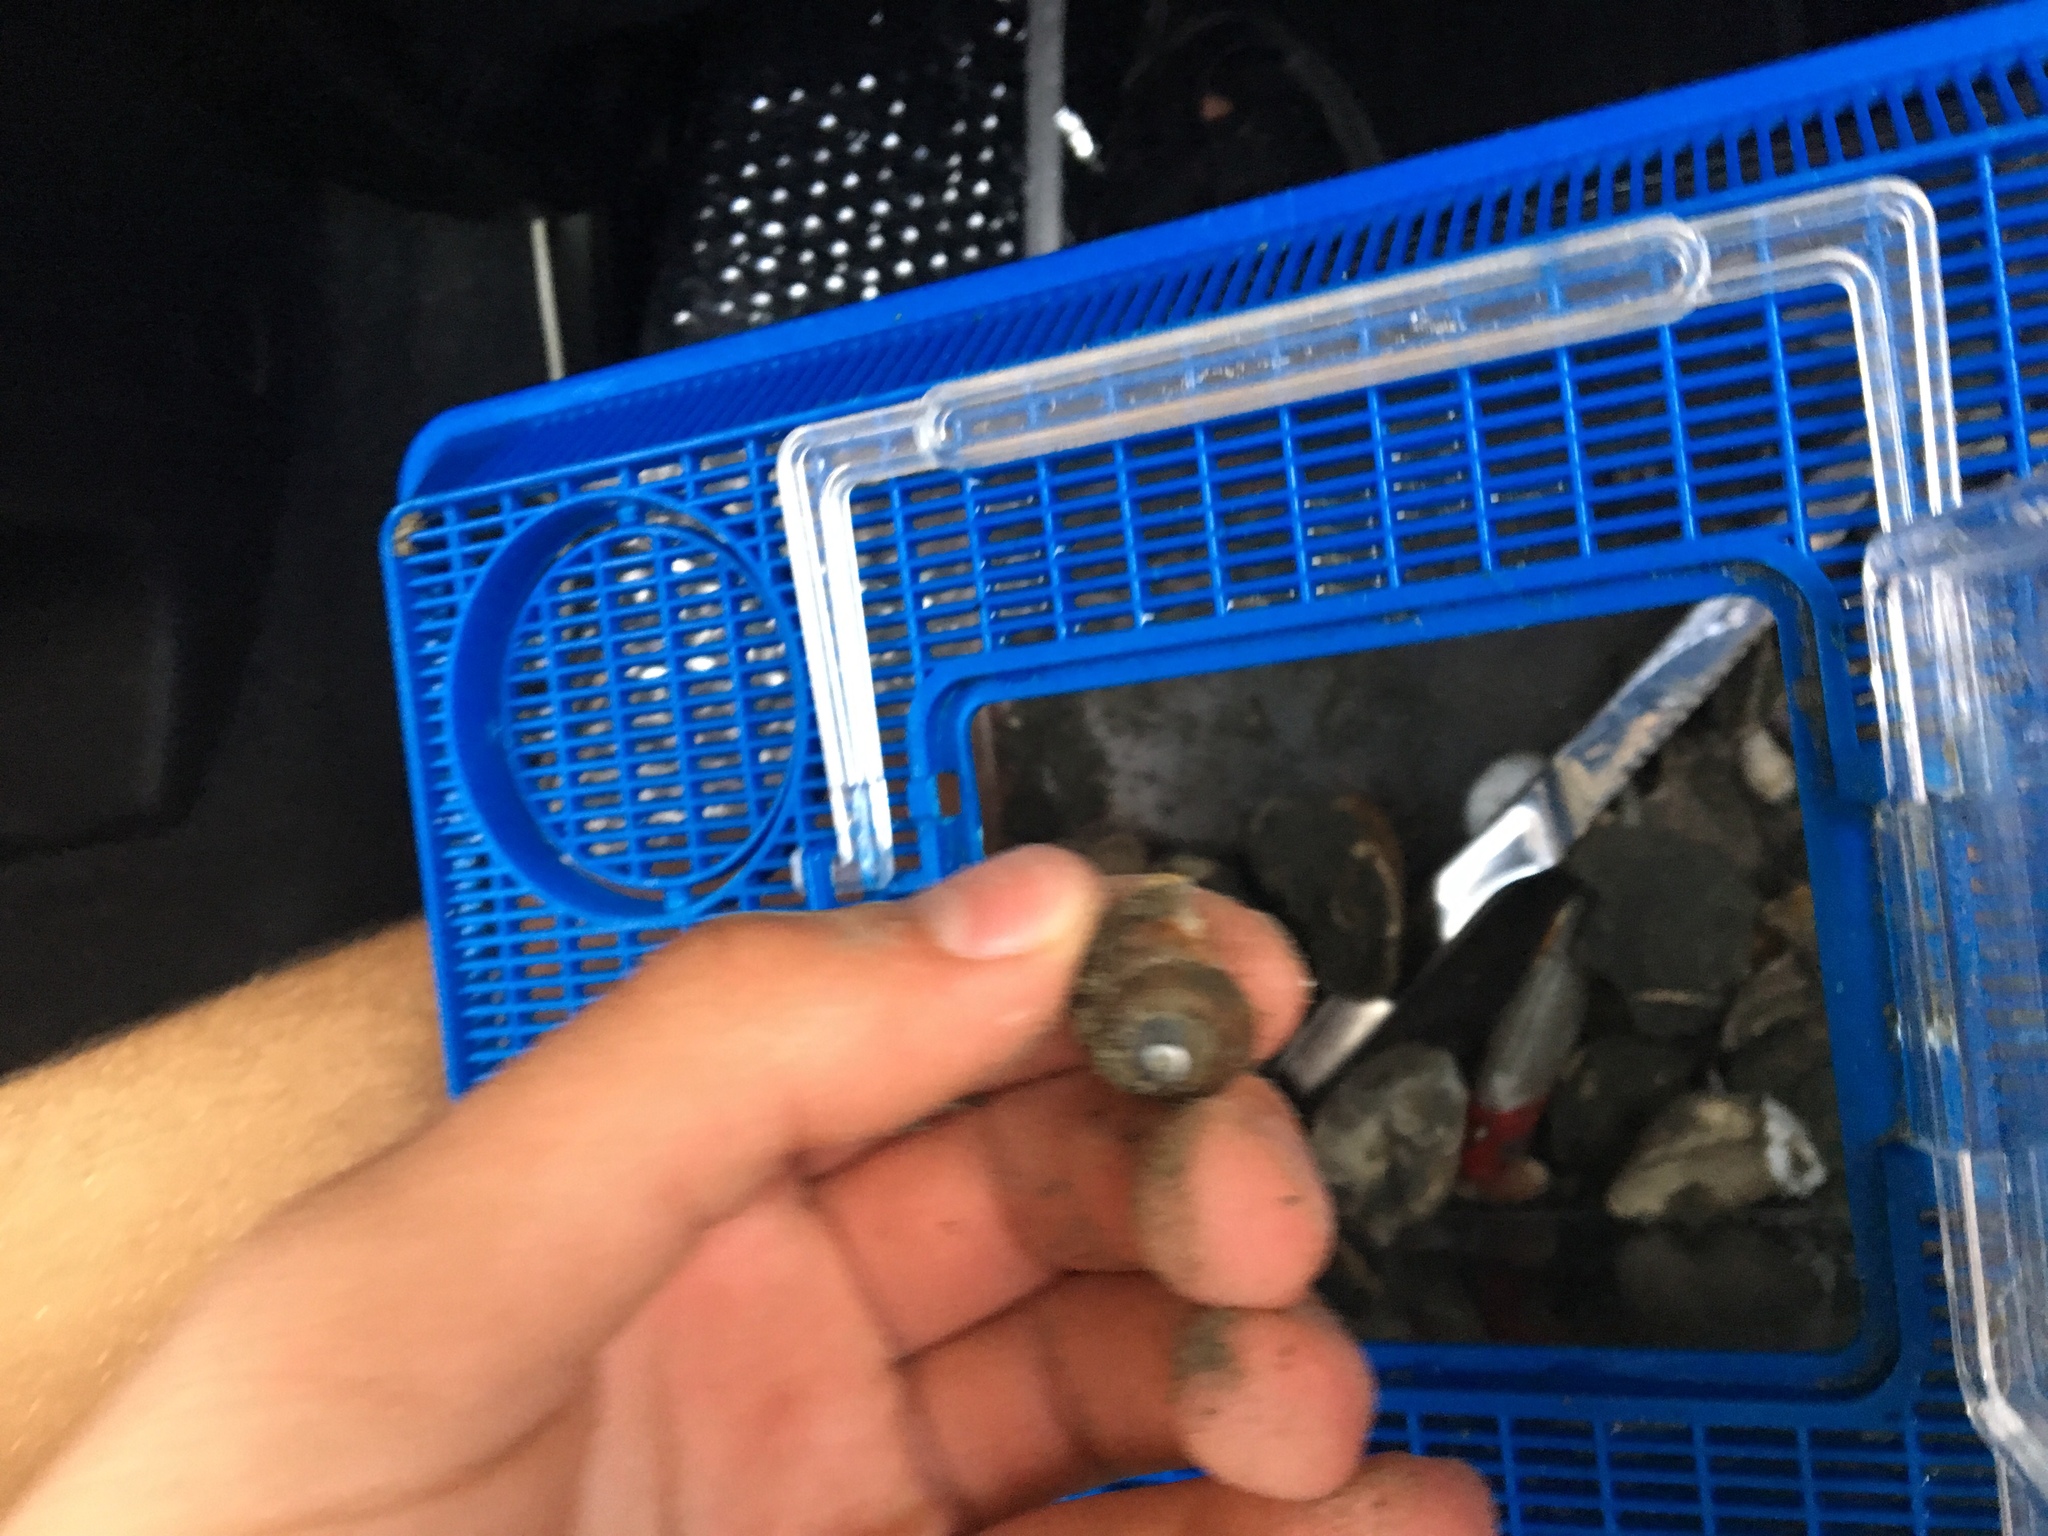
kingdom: Animalia
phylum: Mollusca
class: Gastropoda
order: Trochida
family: Tegulidae
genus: Tegula
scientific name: Tegula brunnea
